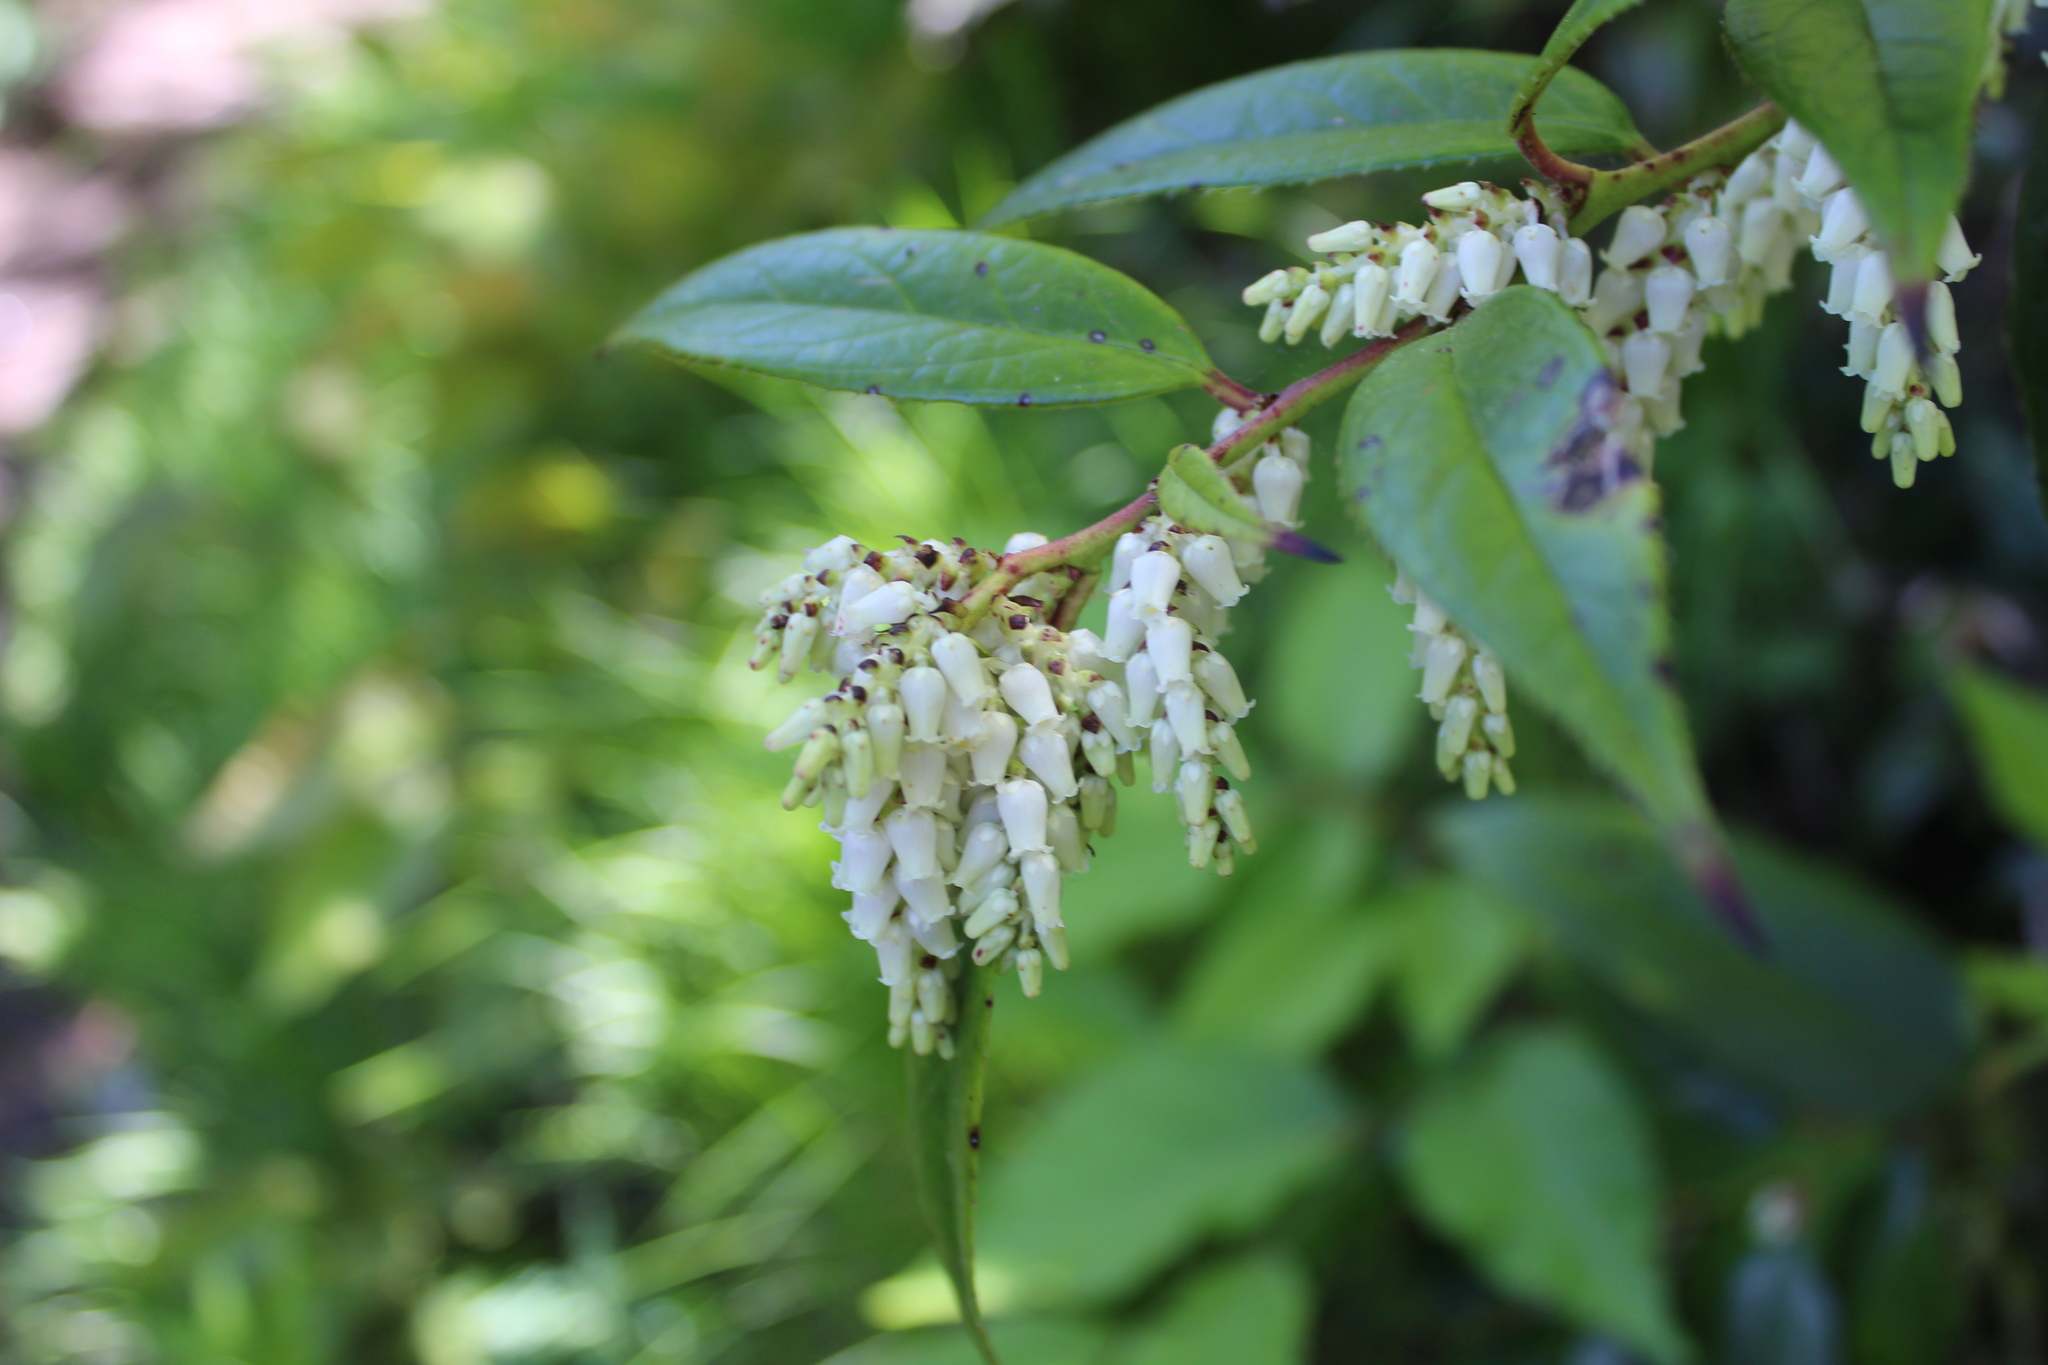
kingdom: Plantae
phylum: Tracheophyta
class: Magnoliopsida
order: Ericales
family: Ericaceae
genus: Leucothoe
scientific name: Leucothoe fontanesiana
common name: Fetterbush
